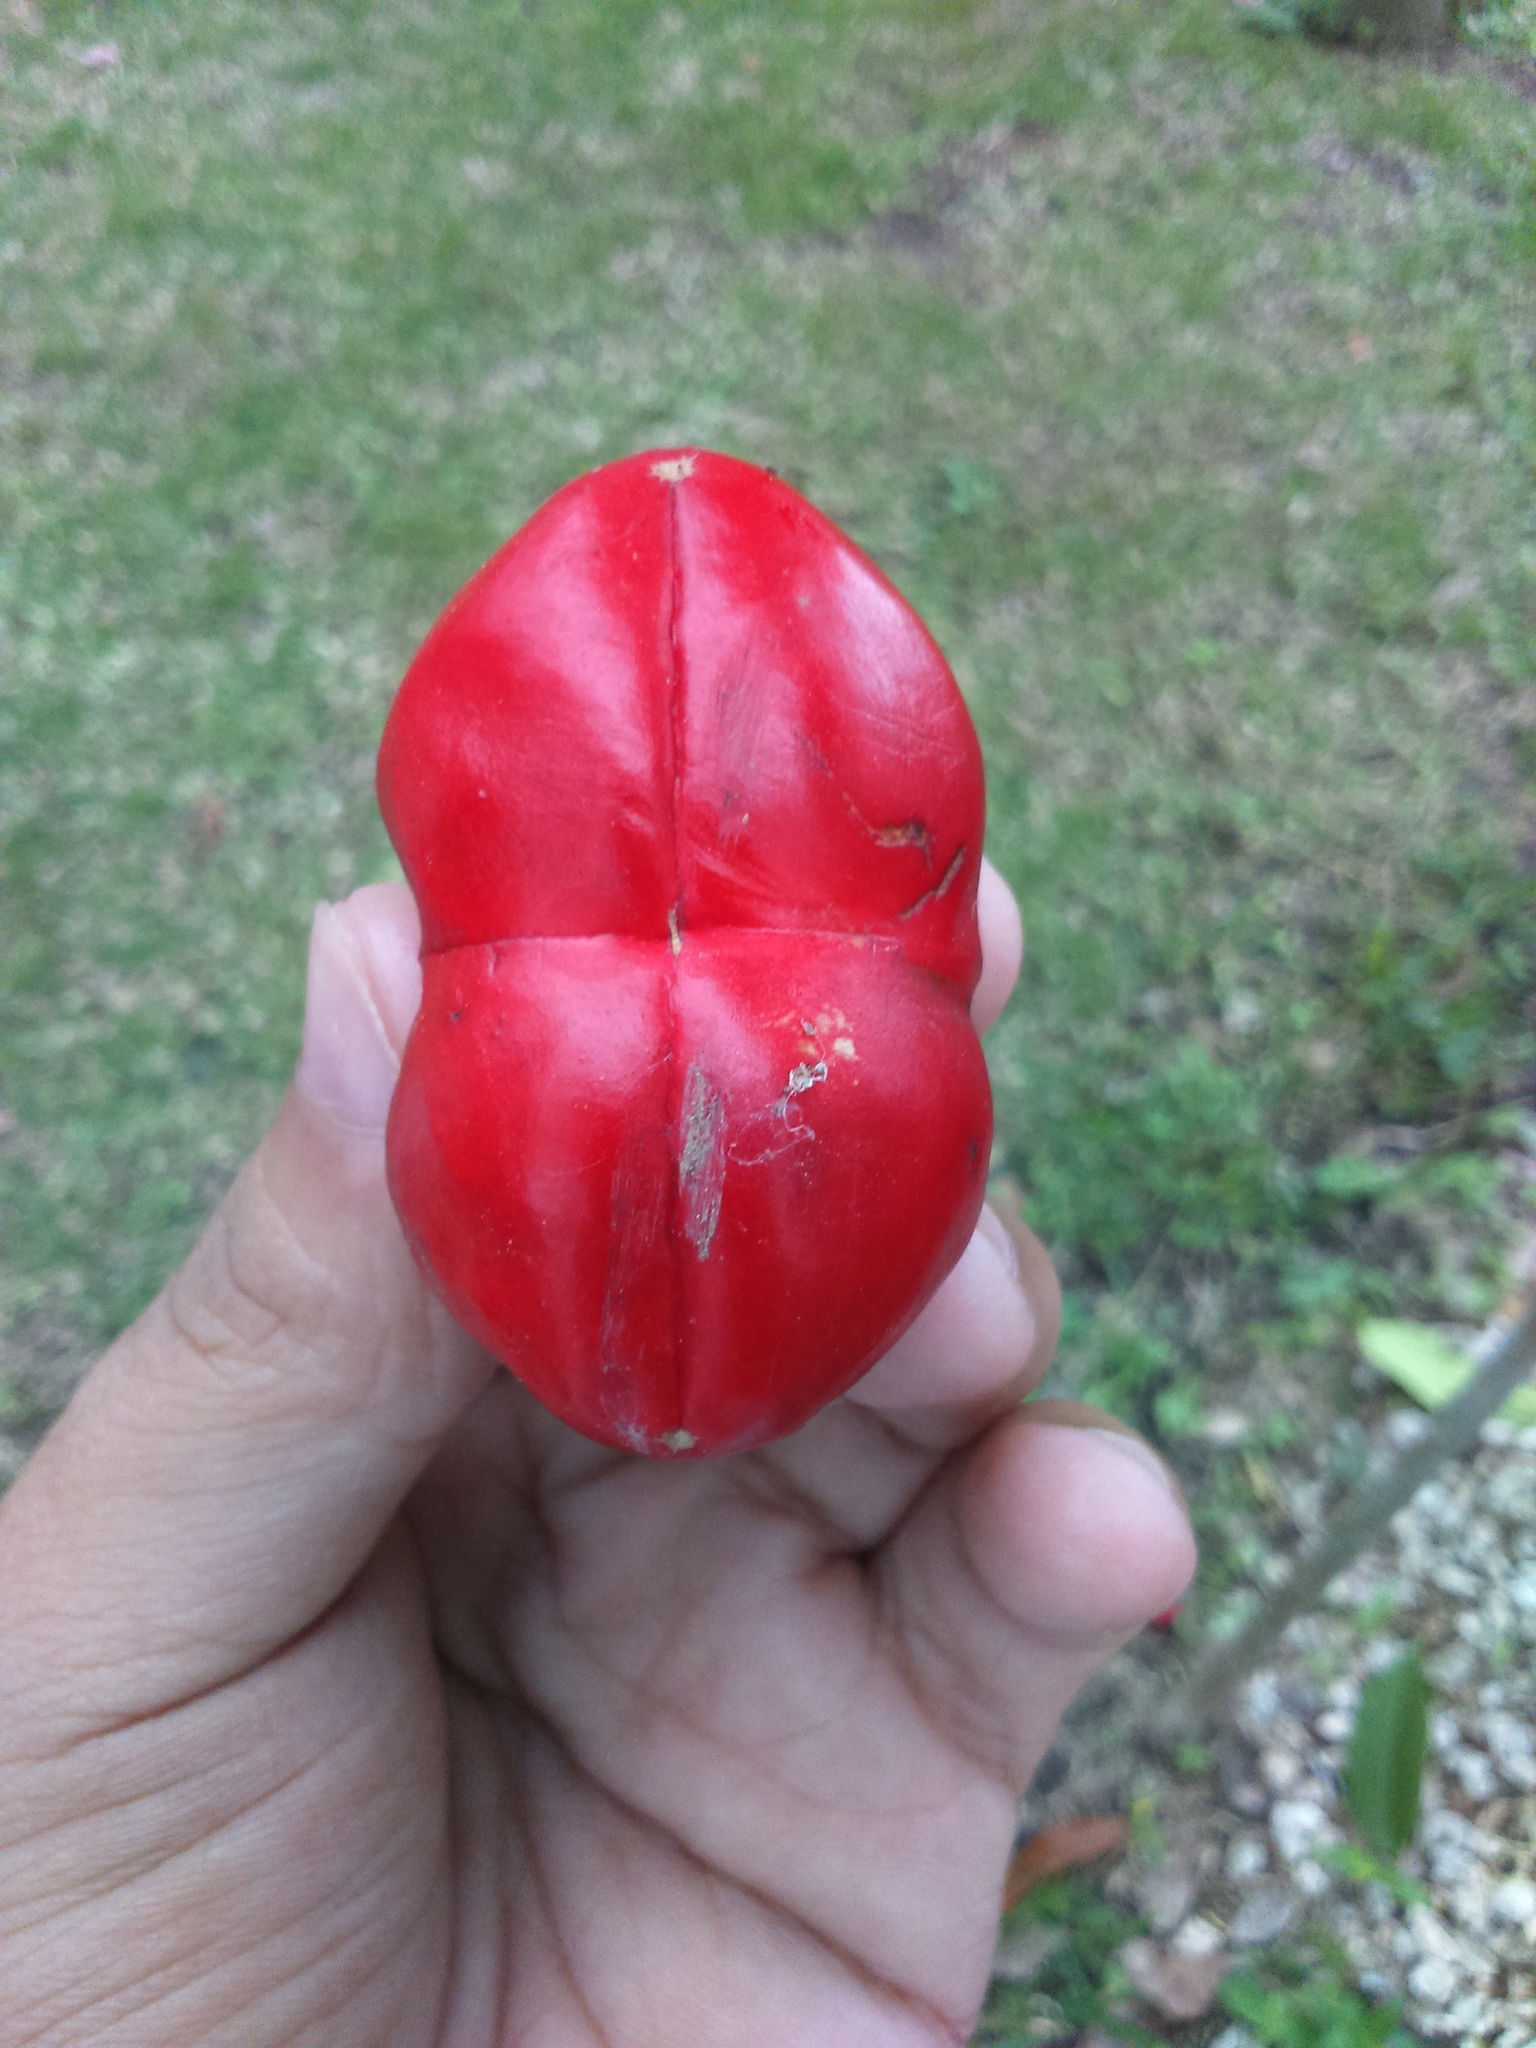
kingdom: Plantae
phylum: Tracheophyta
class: Magnoliopsida
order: Gentianales
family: Apocynaceae
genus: Thevetia
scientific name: Thevetia ahouai
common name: Broadleaf thevetia
